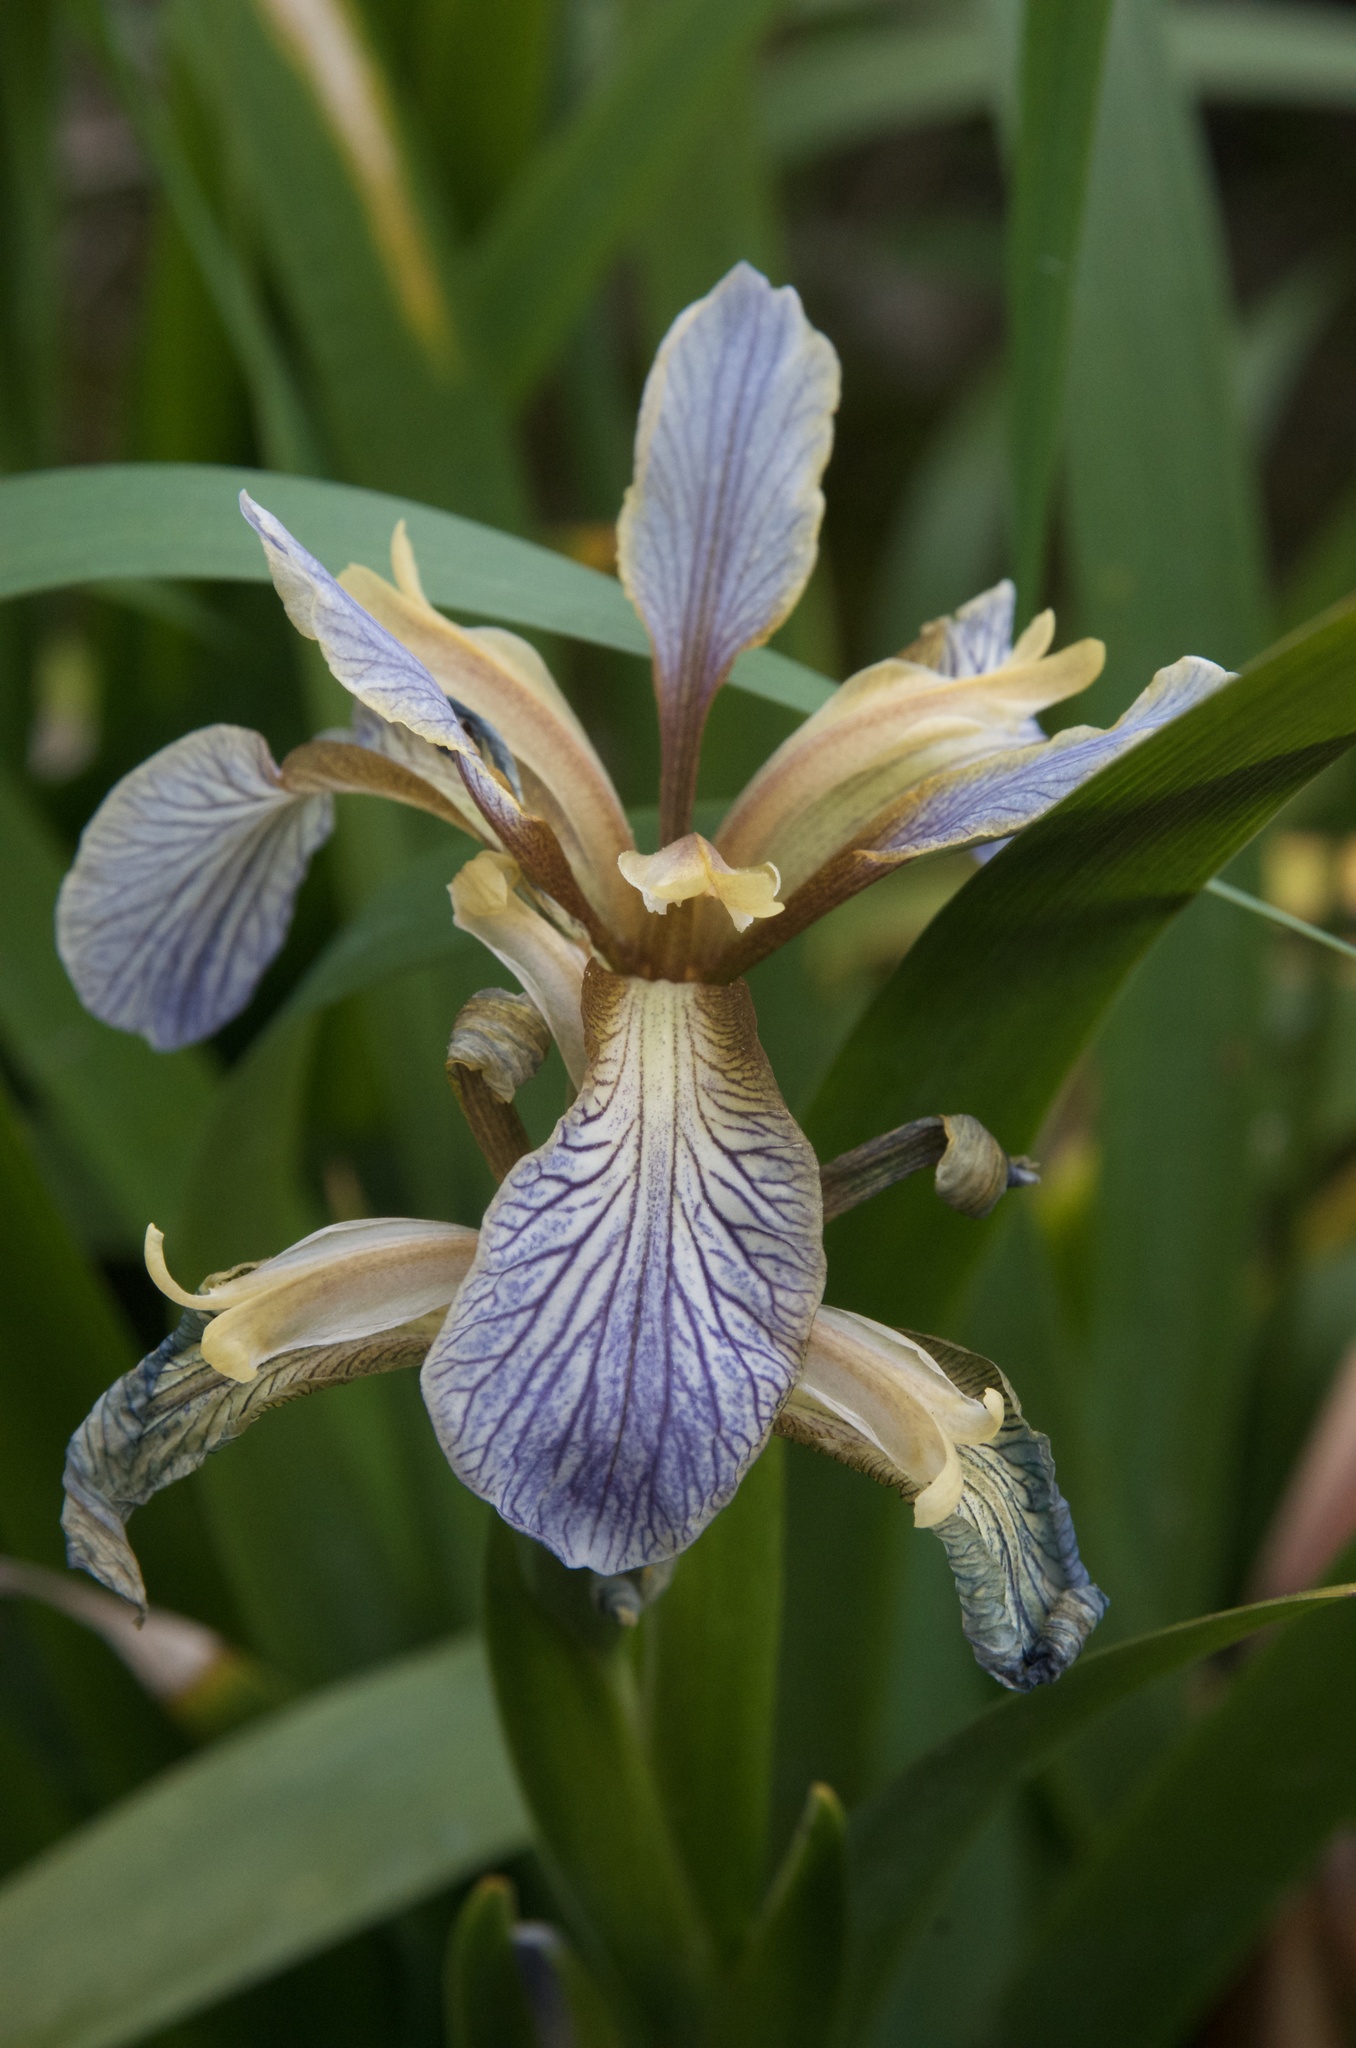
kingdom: Plantae
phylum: Tracheophyta
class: Liliopsida
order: Asparagales
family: Iridaceae
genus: Iris
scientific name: Iris foetidissima
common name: Stinking iris
